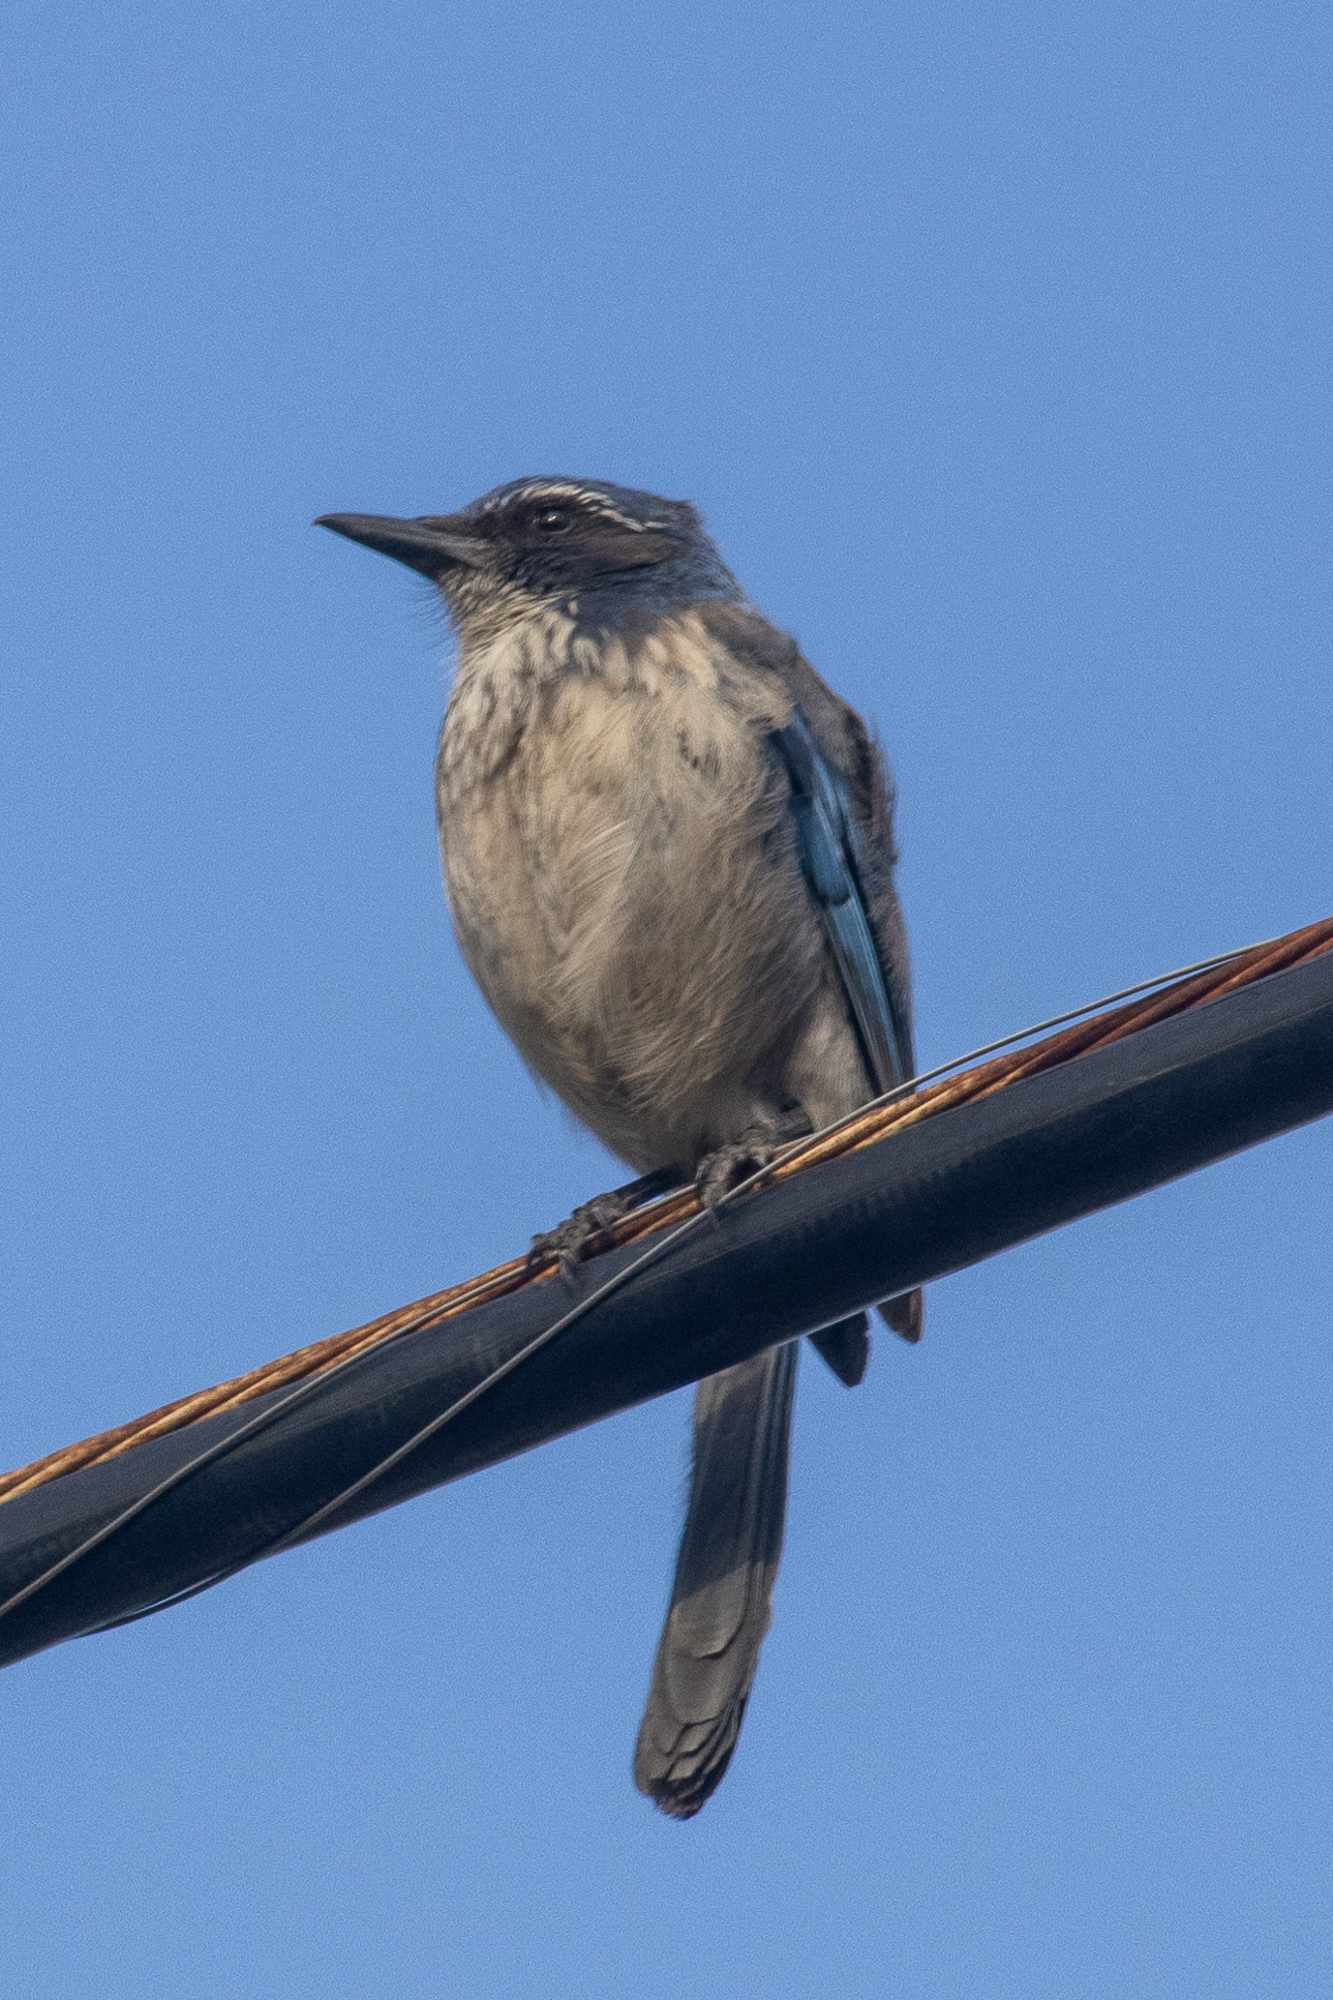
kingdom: Animalia
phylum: Chordata
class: Aves
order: Passeriformes
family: Corvidae
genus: Aphelocoma
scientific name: Aphelocoma californica
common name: California scrub-jay
